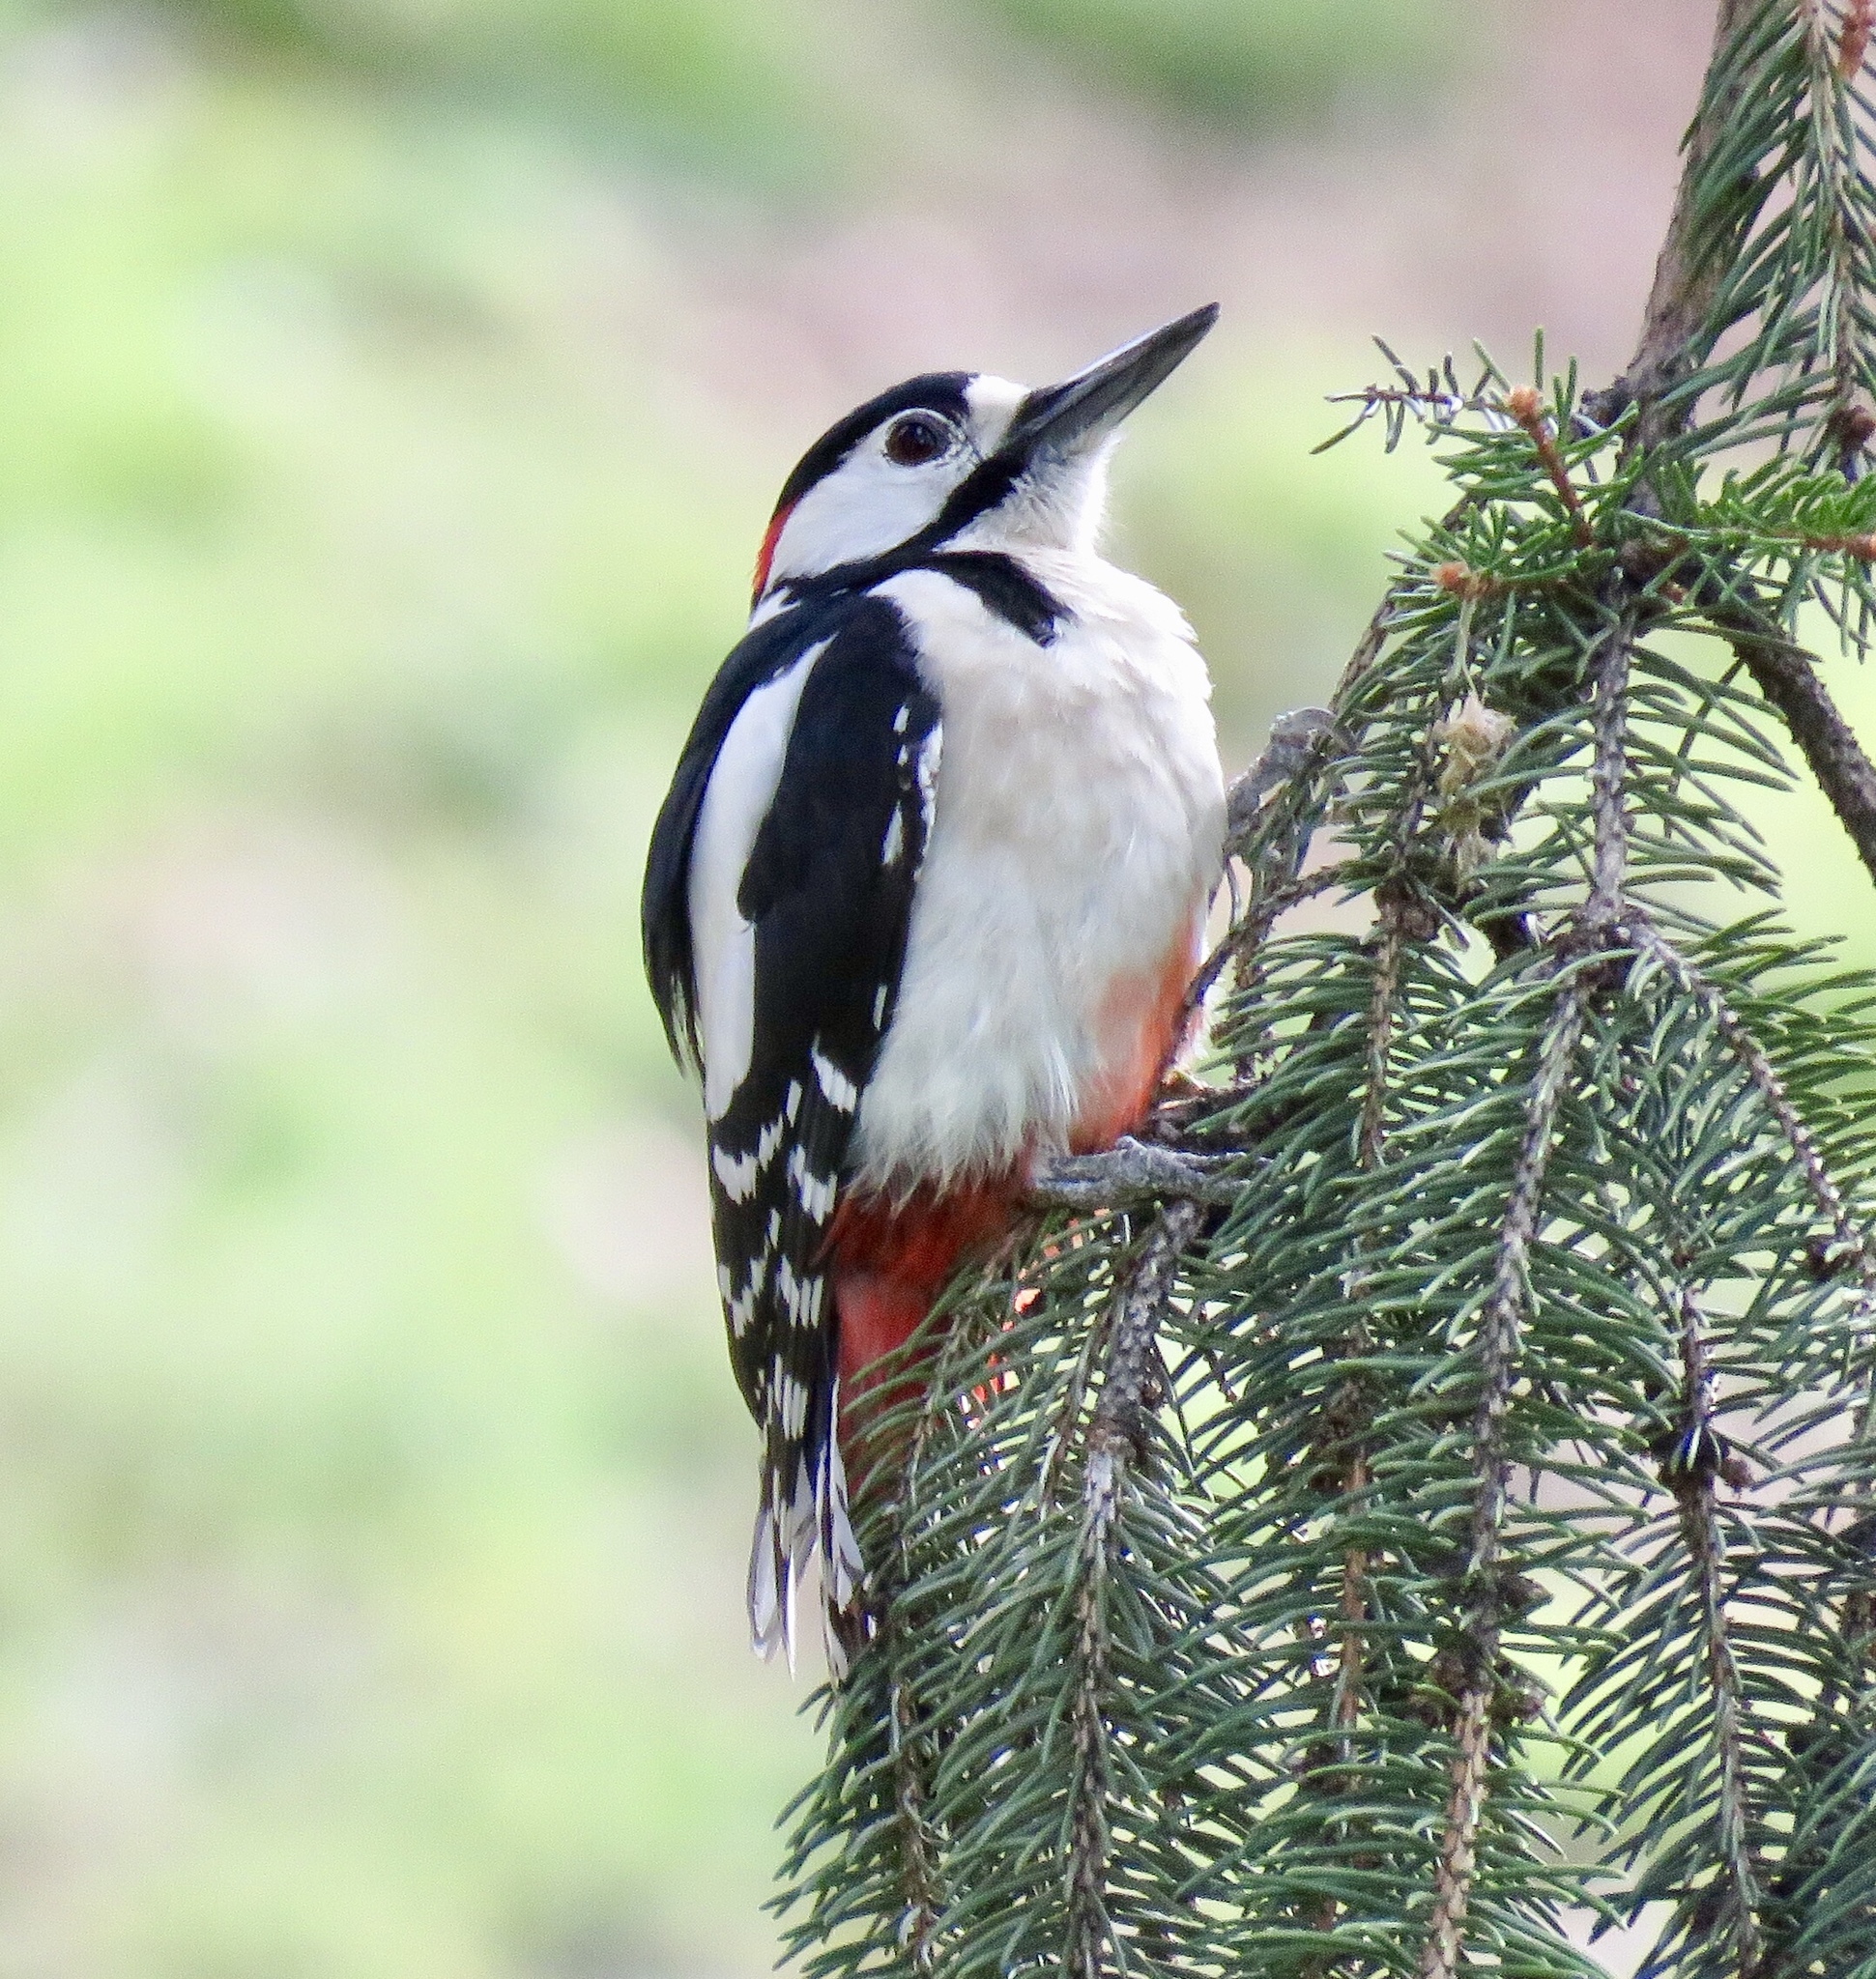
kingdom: Animalia
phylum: Chordata
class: Aves
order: Piciformes
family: Picidae
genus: Dendrocopos
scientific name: Dendrocopos major
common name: Great spotted woodpecker
